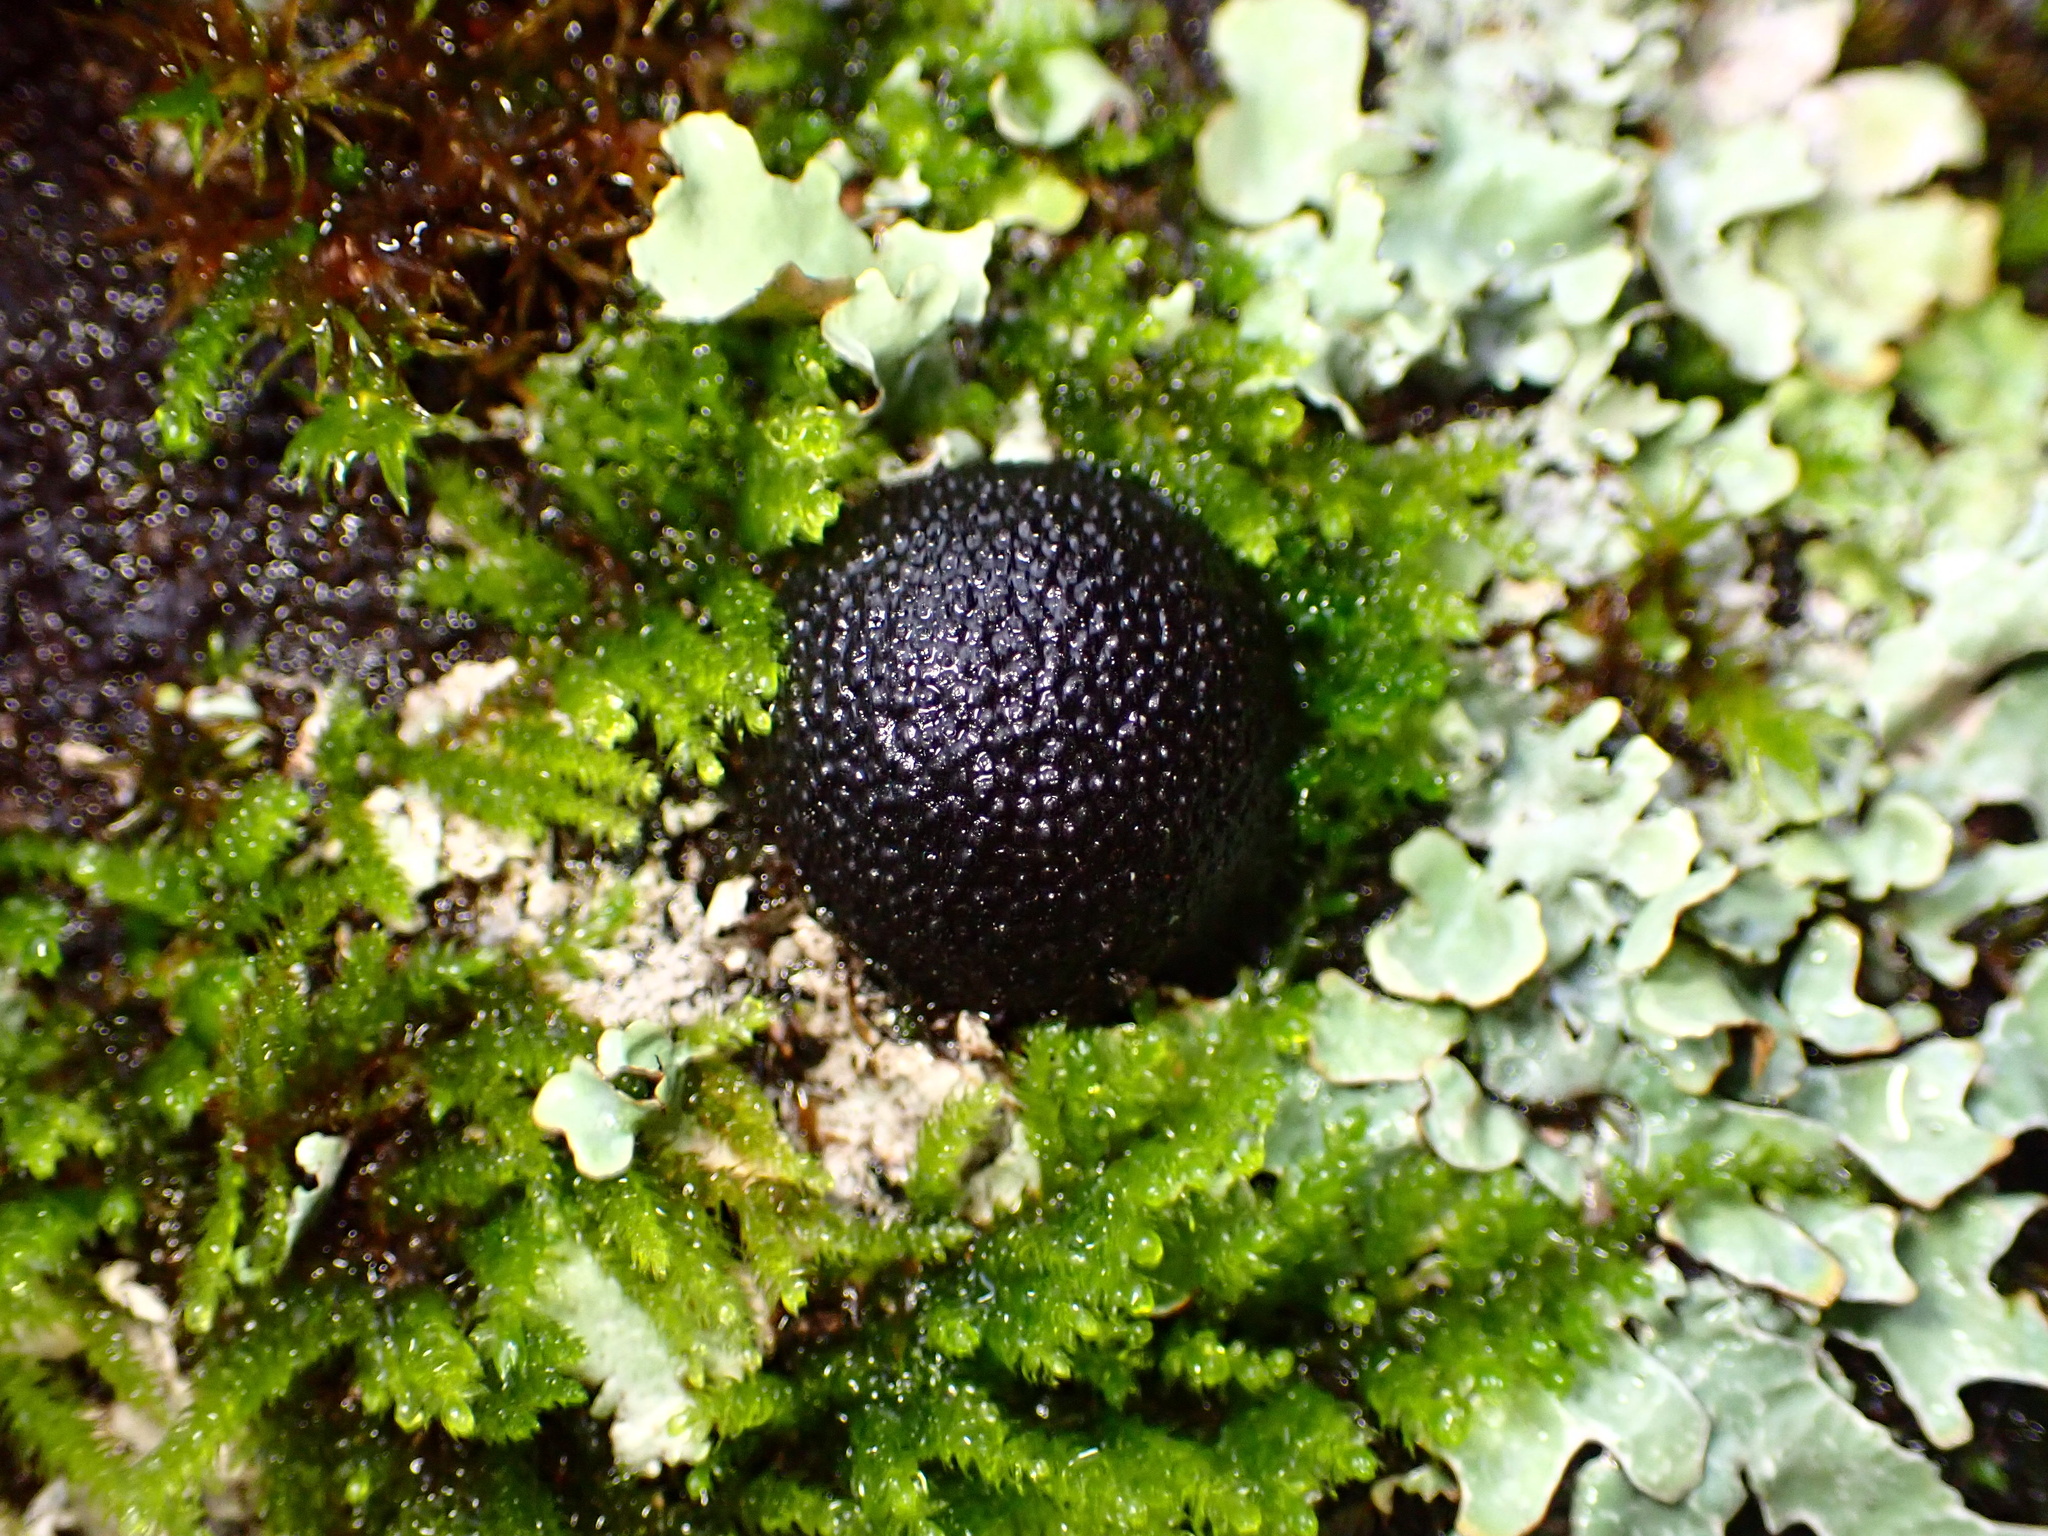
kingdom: Fungi
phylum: Ascomycota
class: Sordariomycetes
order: Xylariales
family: Hypoxylaceae
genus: Annulohypoxylon
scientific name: Annulohypoxylon thouarsianum
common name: Cramp balls
